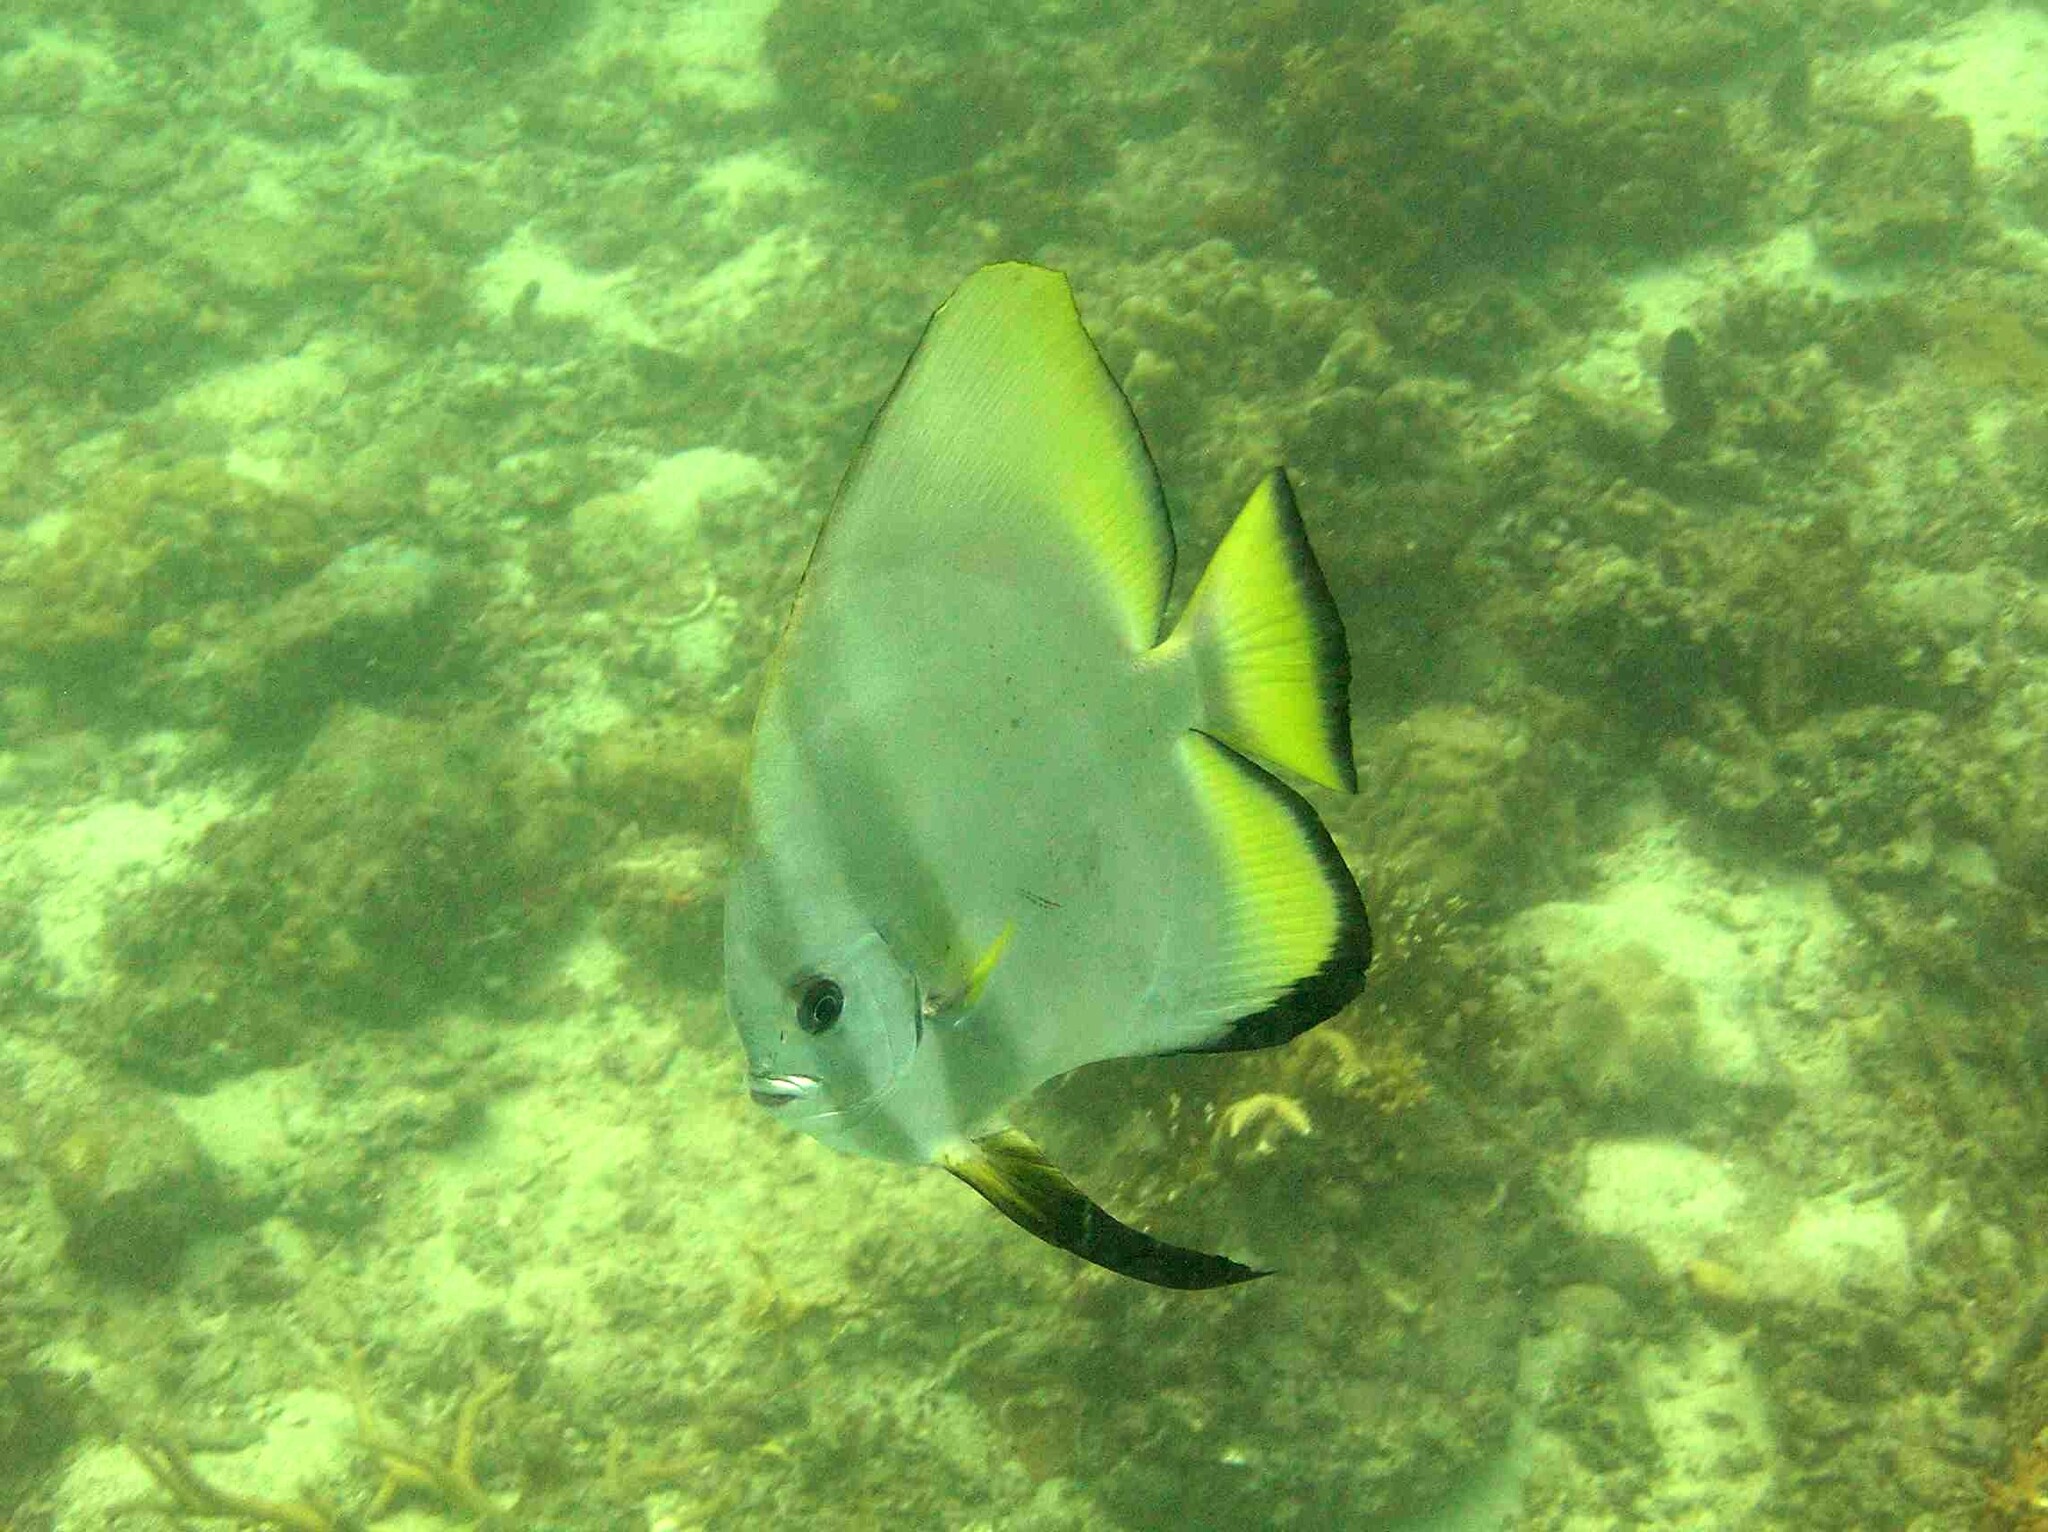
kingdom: Animalia
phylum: Chordata
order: Perciformes
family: Ephippidae
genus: Platax
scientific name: Platax boersii
